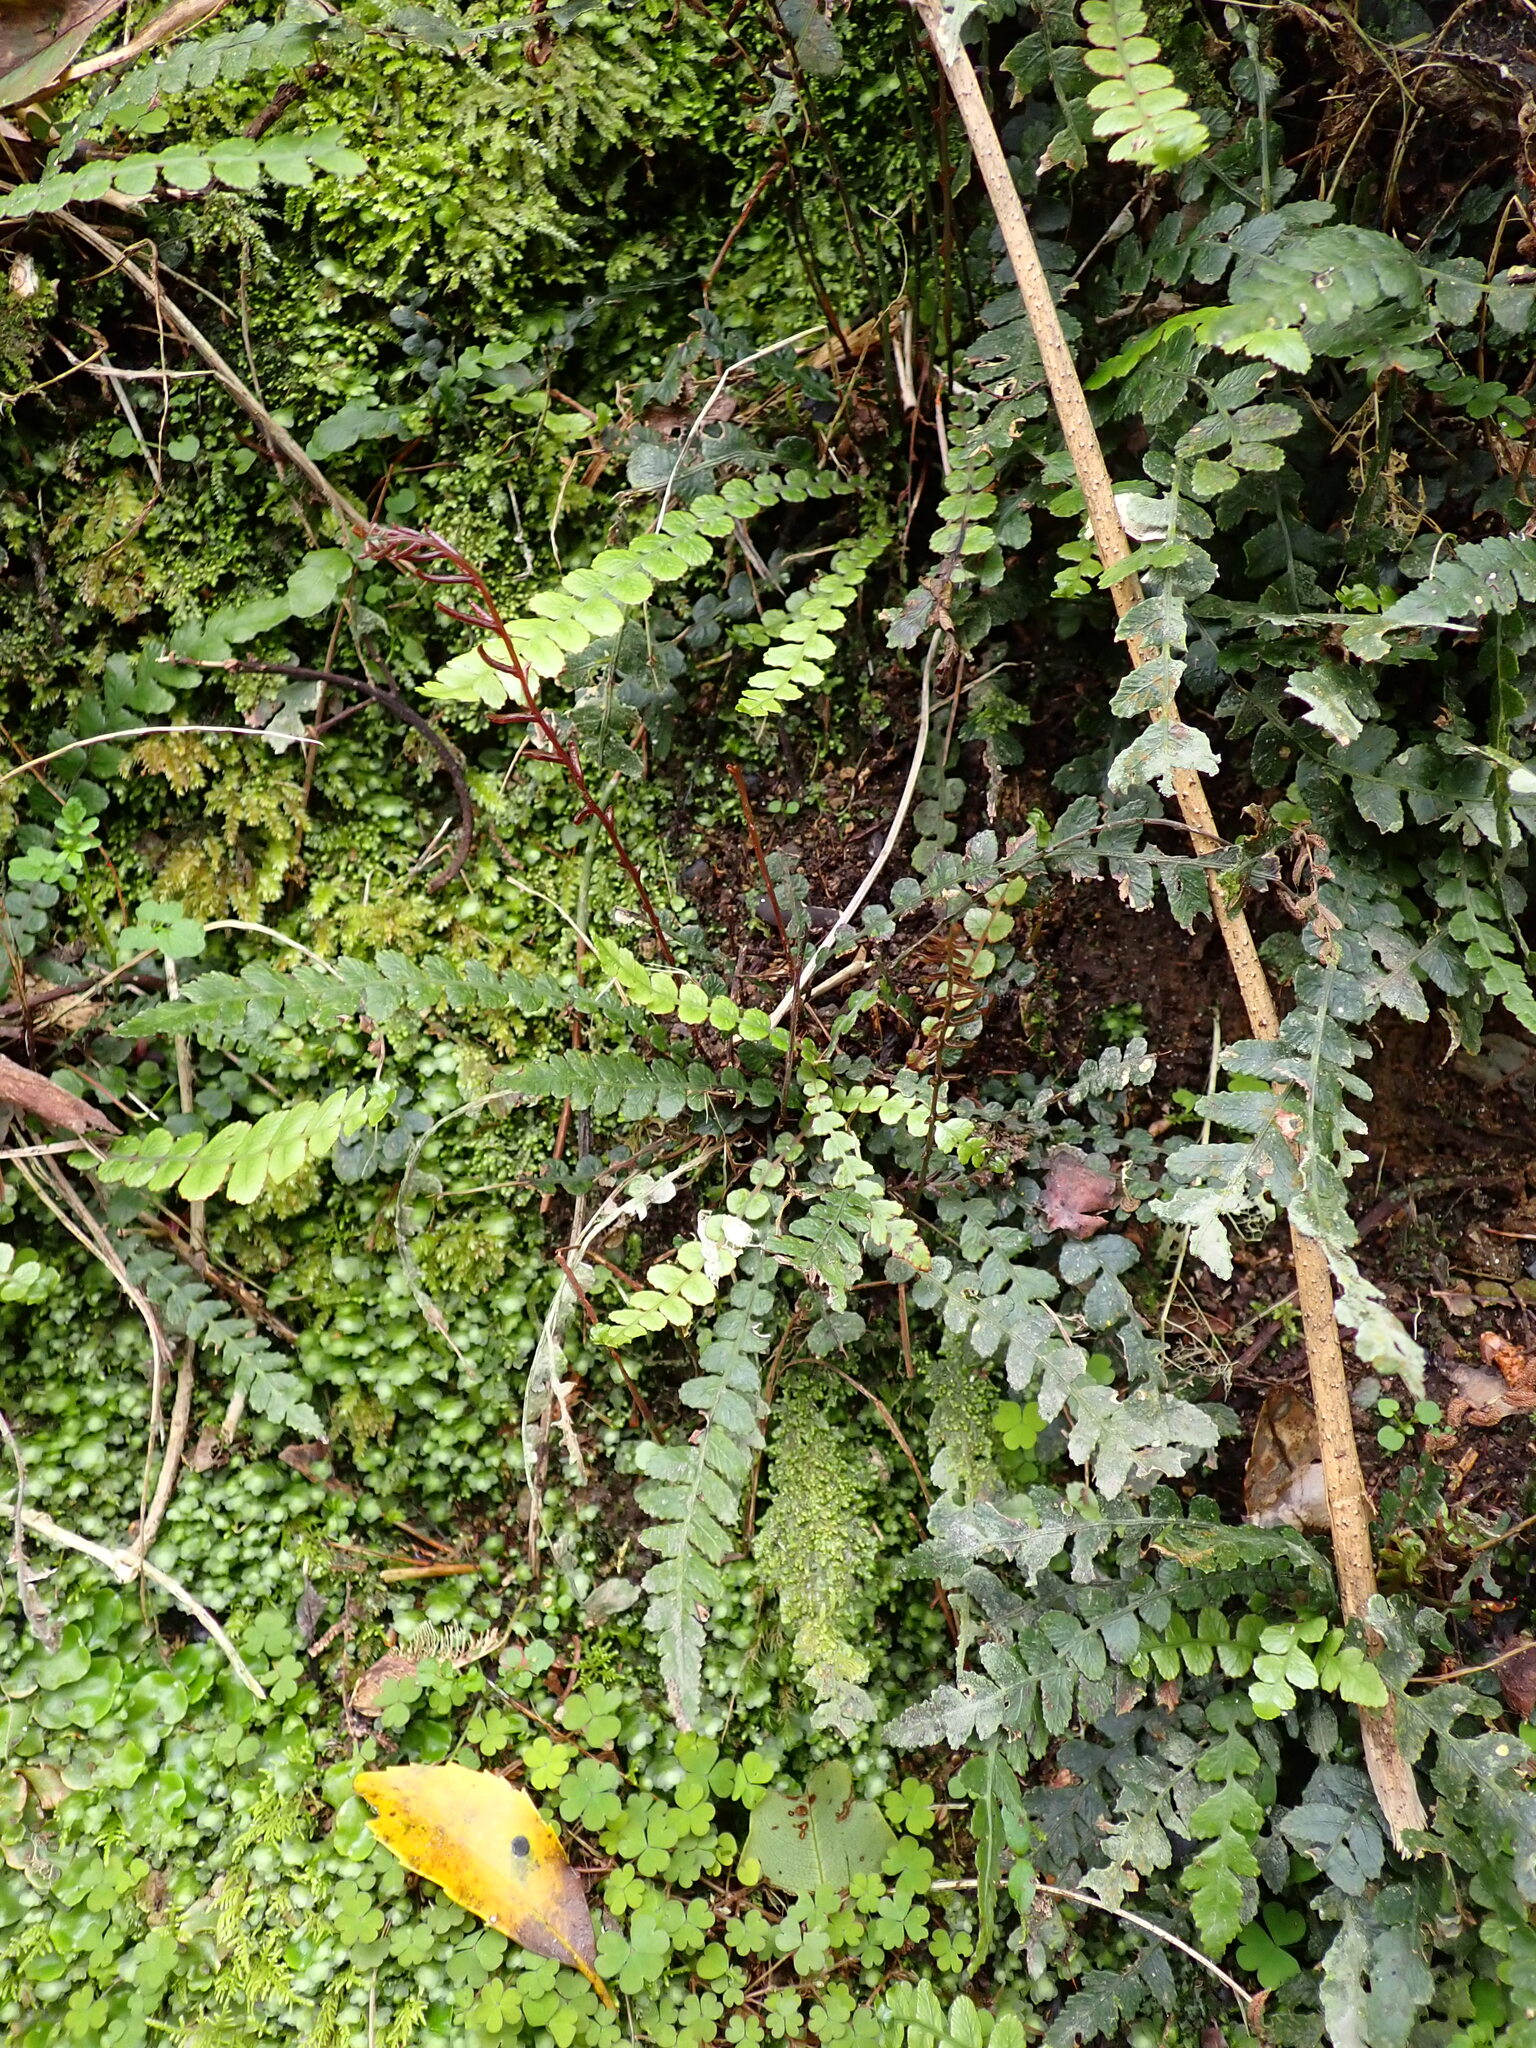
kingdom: Plantae
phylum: Tracheophyta
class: Polypodiopsida
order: Polypodiales
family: Blechnaceae
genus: Austroblechnum
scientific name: Austroblechnum membranaceum
